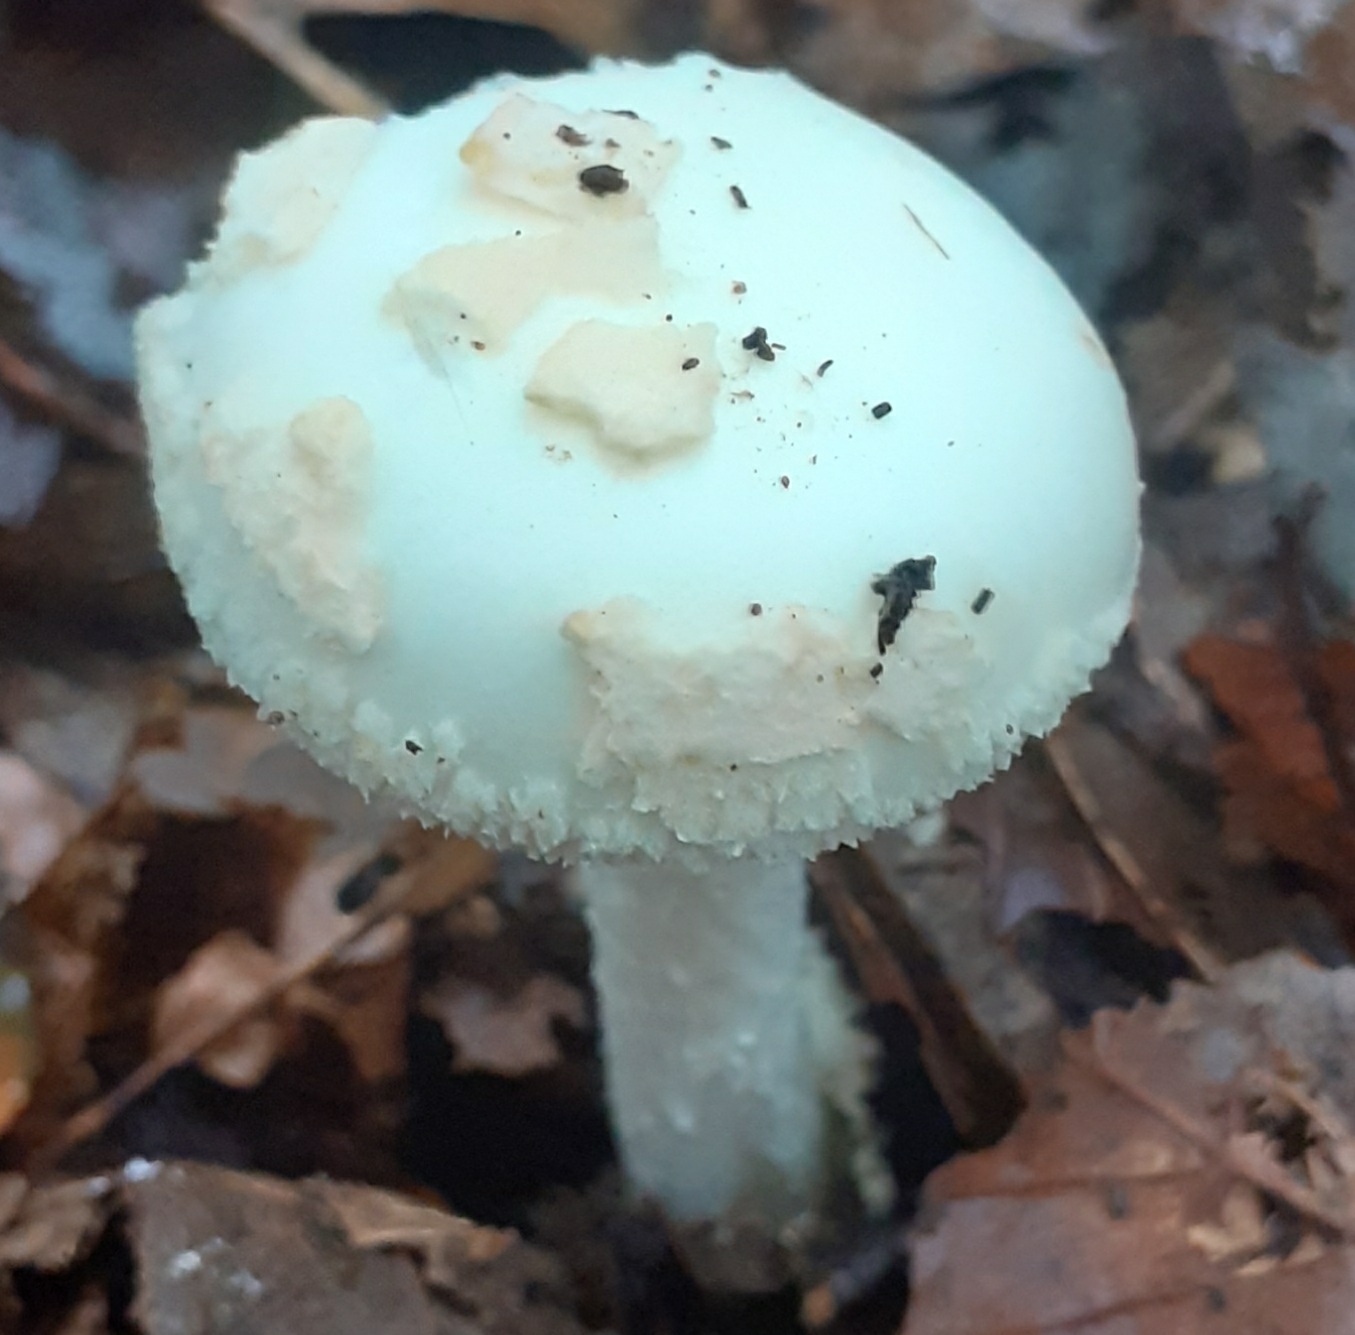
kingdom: Fungi
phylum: Basidiomycota
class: Agaricomycetes
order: Agaricales
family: Amanitaceae
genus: Amanita
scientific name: Amanita citrina
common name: False death-cap
